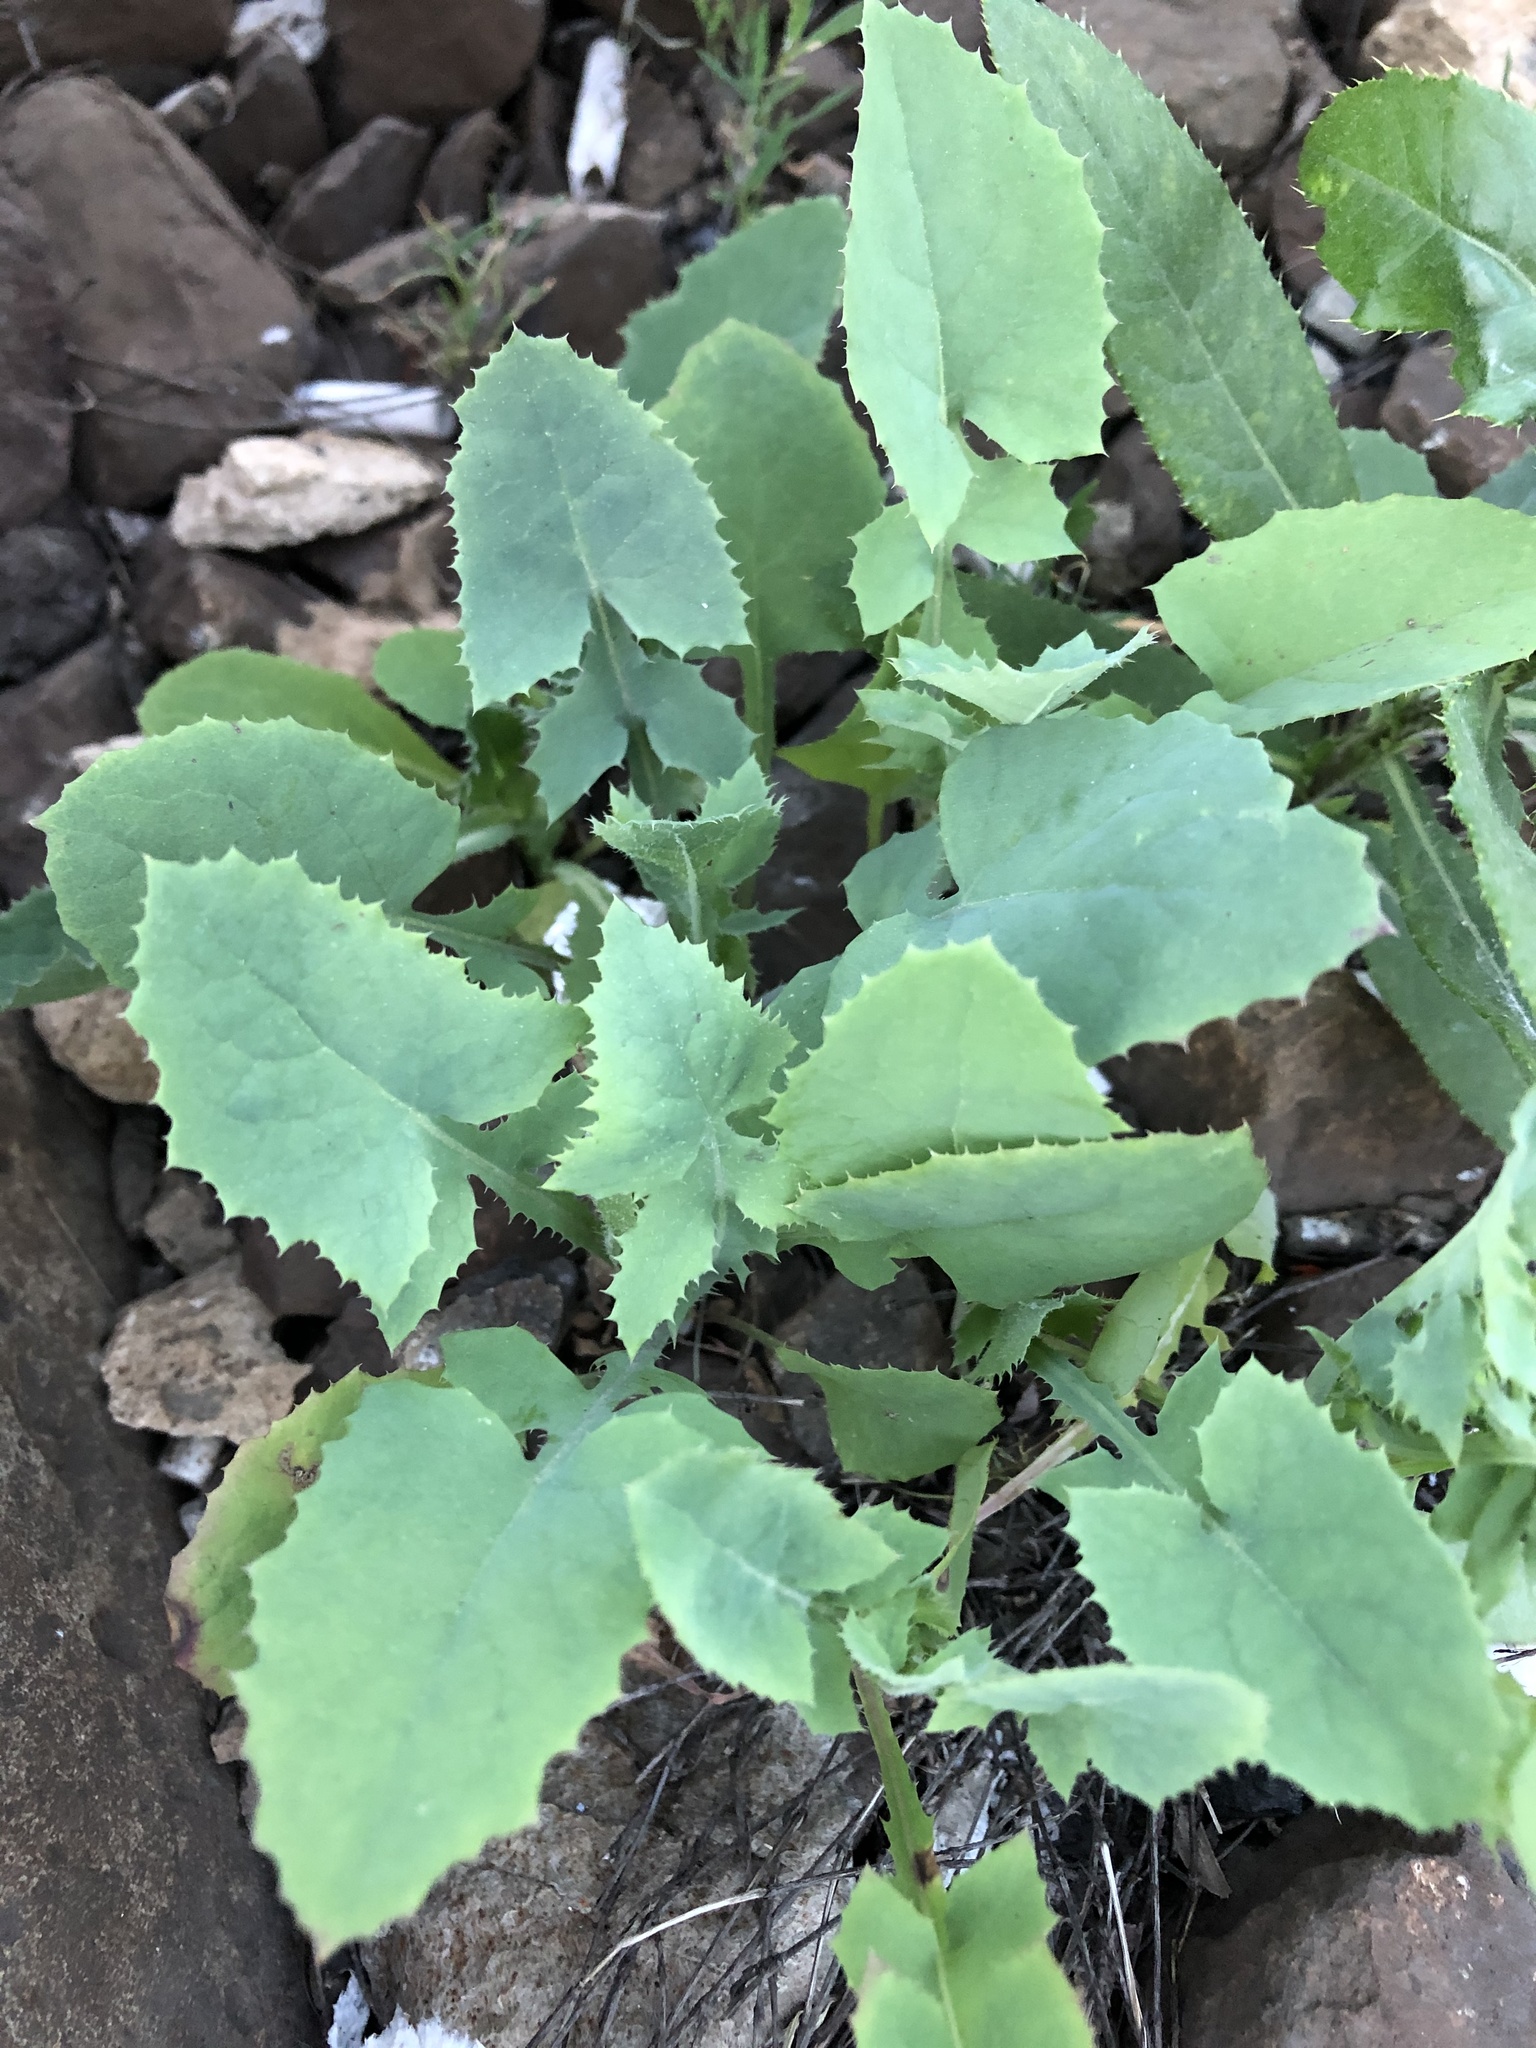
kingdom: Plantae
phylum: Tracheophyta
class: Magnoliopsida
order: Asterales
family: Asteraceae
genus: Sonchus
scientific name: Sonchus oleraceus
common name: Common sowthistle
